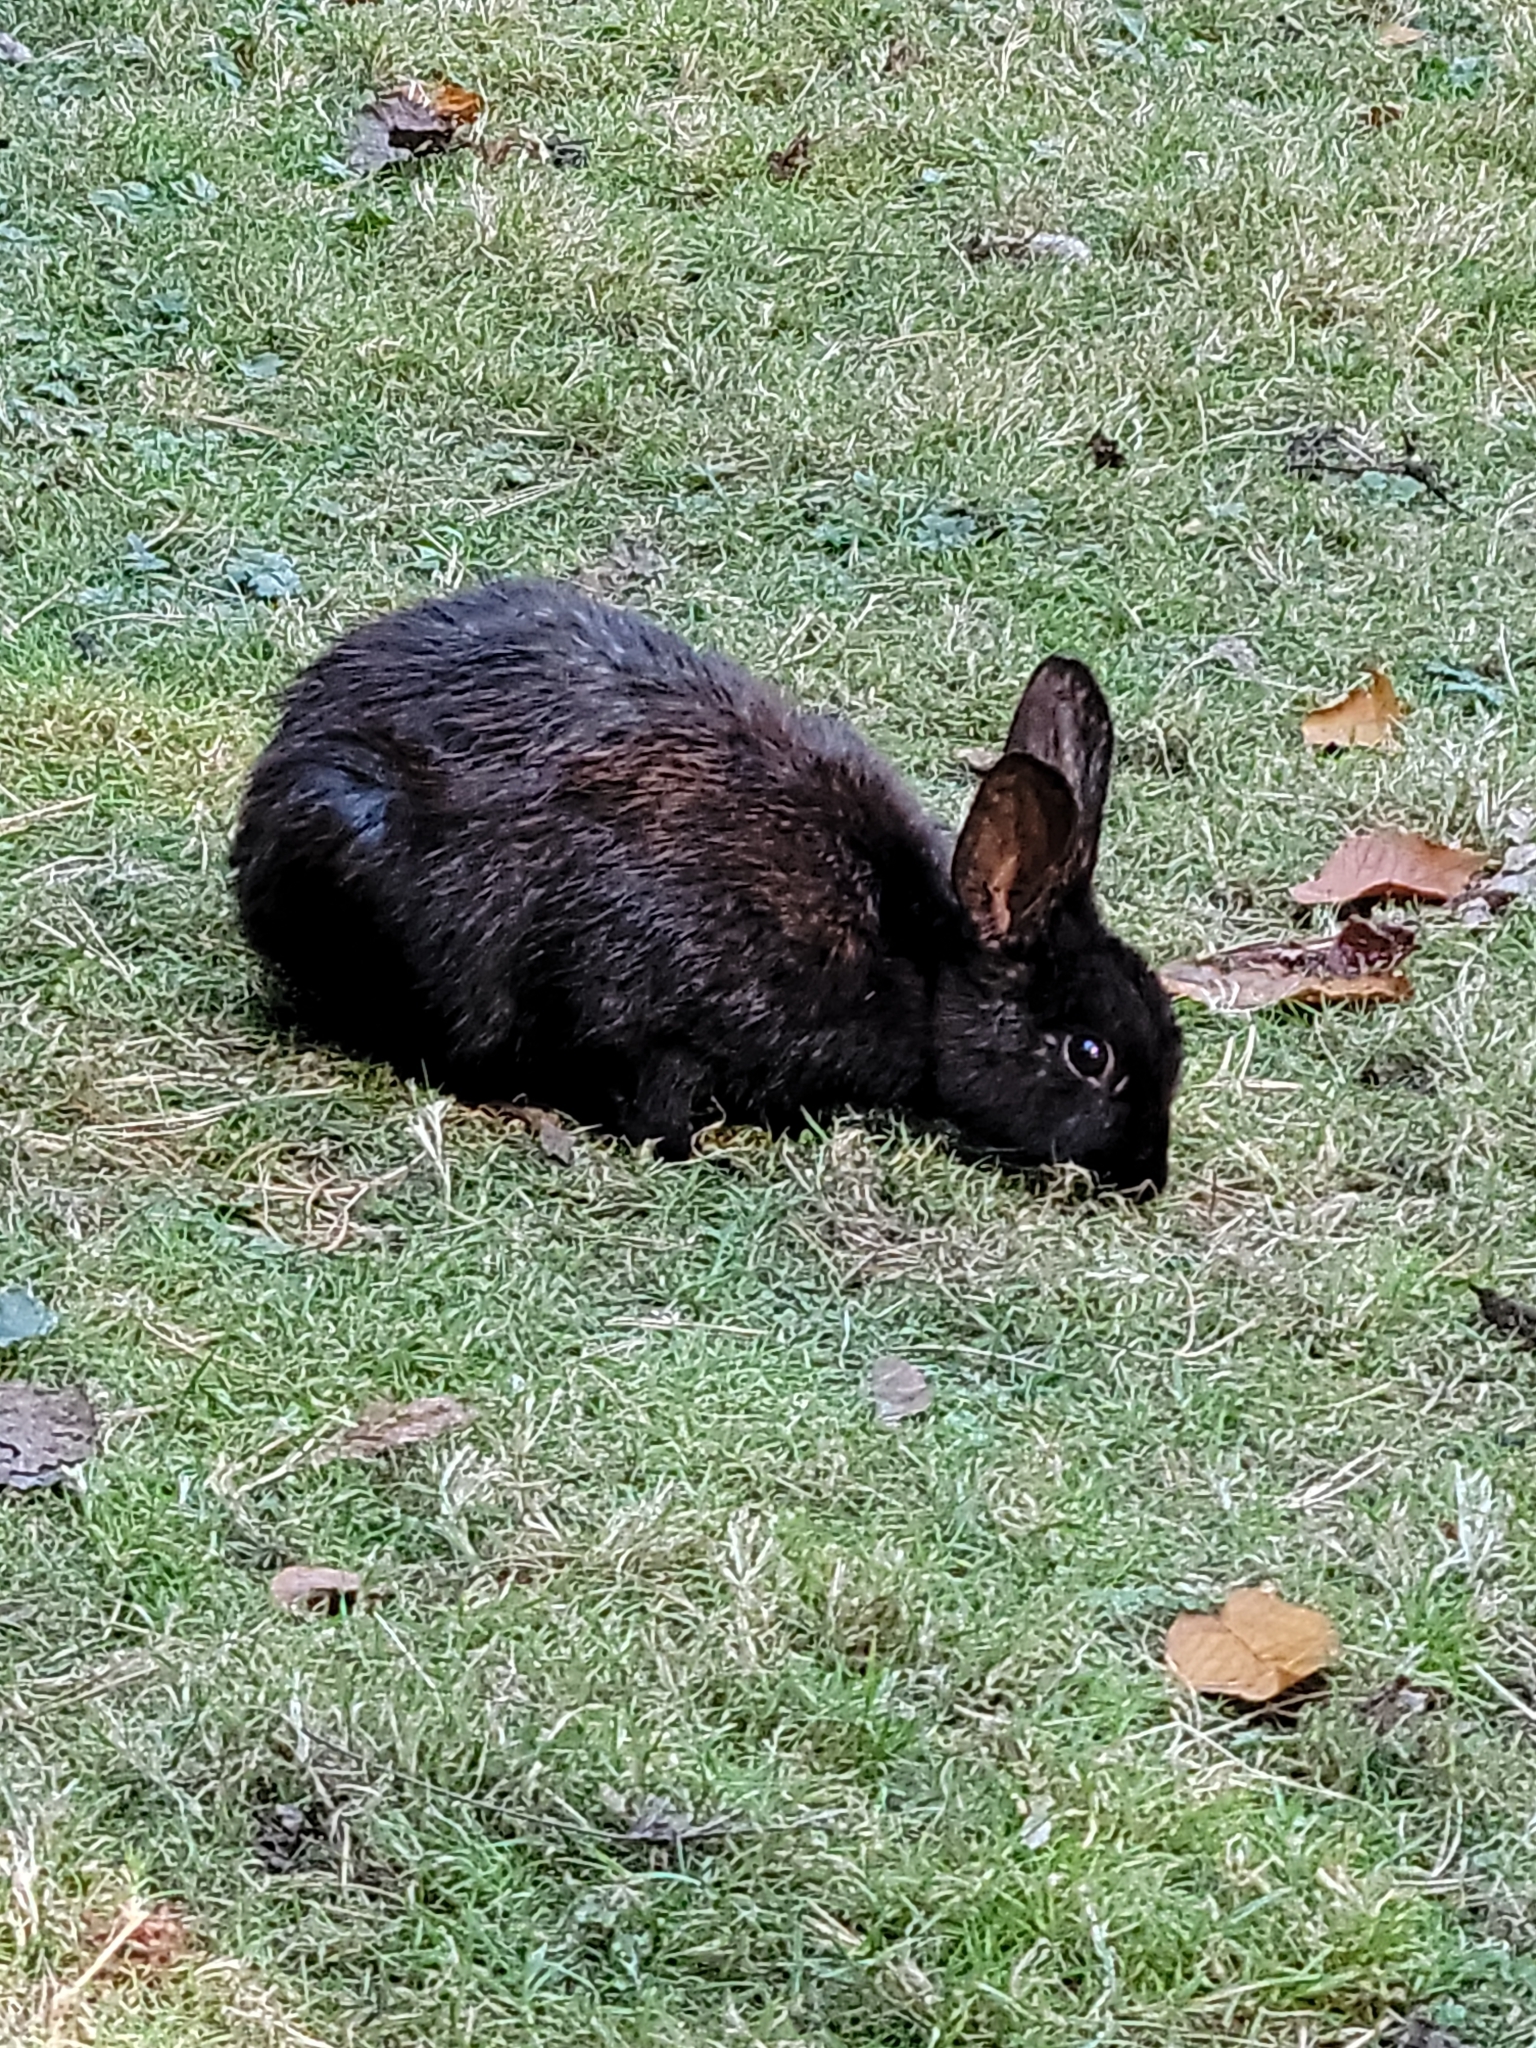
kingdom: Animalia
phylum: Chordata
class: Mammalia
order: Lagomorpha
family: Leporidae
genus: Oryctolagus
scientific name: Oryctolagus cuniculus
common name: European rabbit
